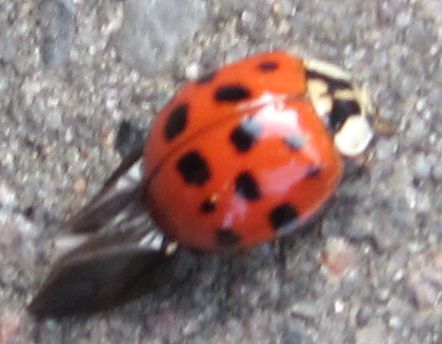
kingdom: Animalia
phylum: Arthropoda
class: Insecta
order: Coleoptera
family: Coccinellidae
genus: Harmonia
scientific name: Harmonia axyridis
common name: Harlequin ladybird
